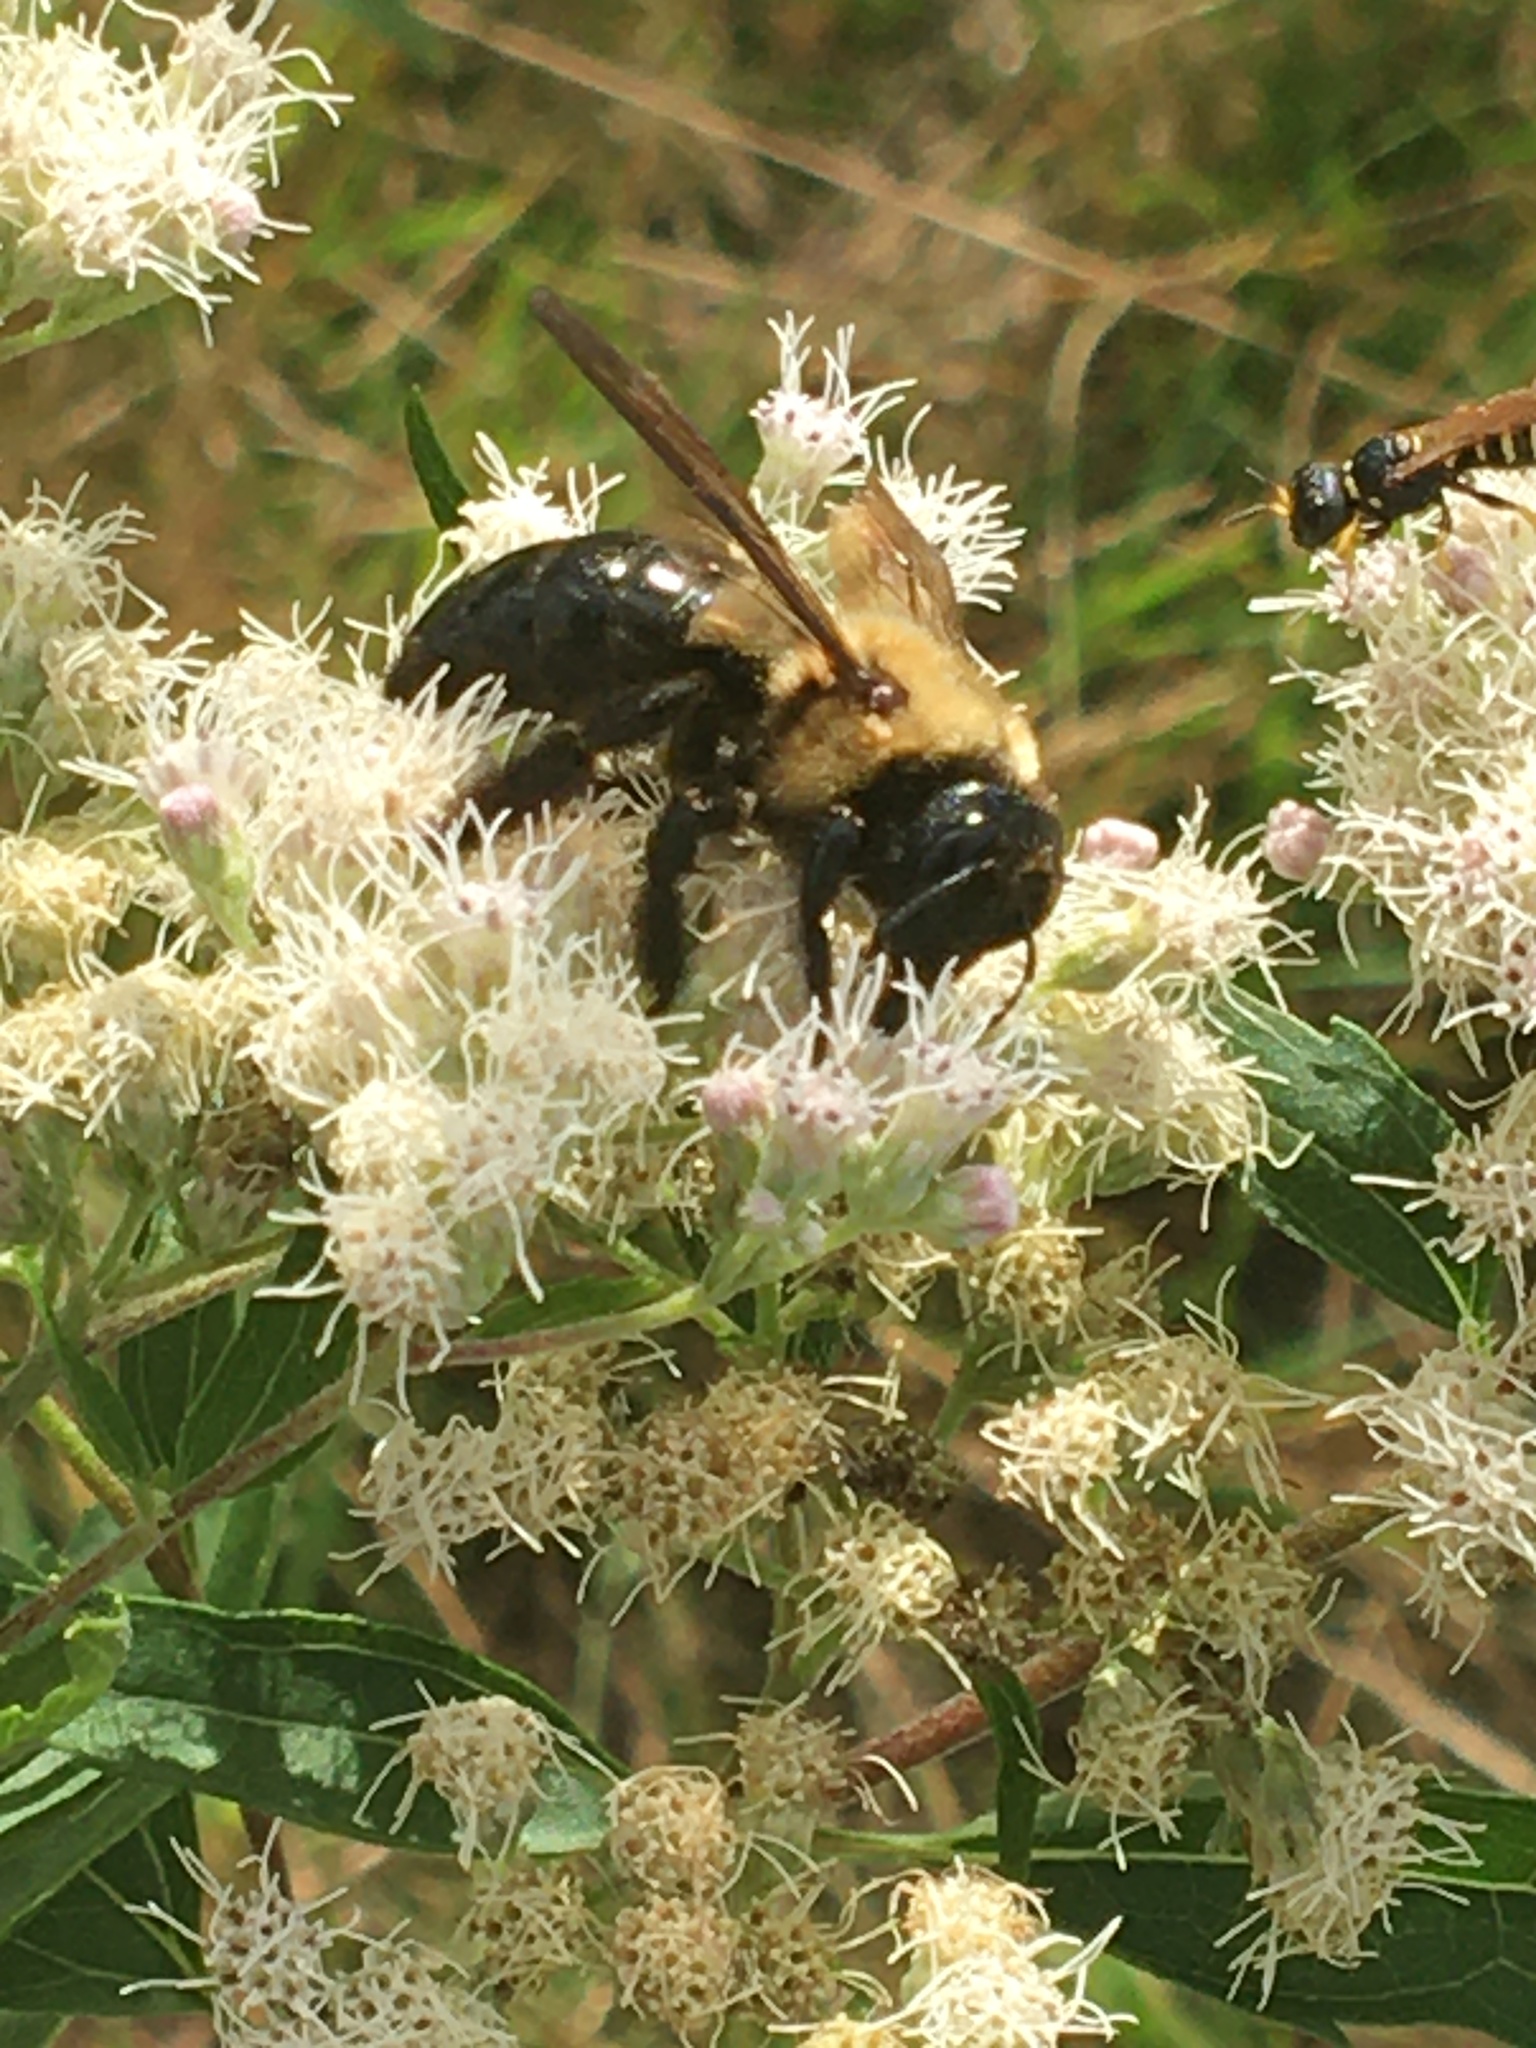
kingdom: Animalia
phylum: Arthropoda
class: Insecta
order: Hymenoptera
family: Apidae
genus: Xylocopa
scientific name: Xylocopa virginica
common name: Carpenter bee
